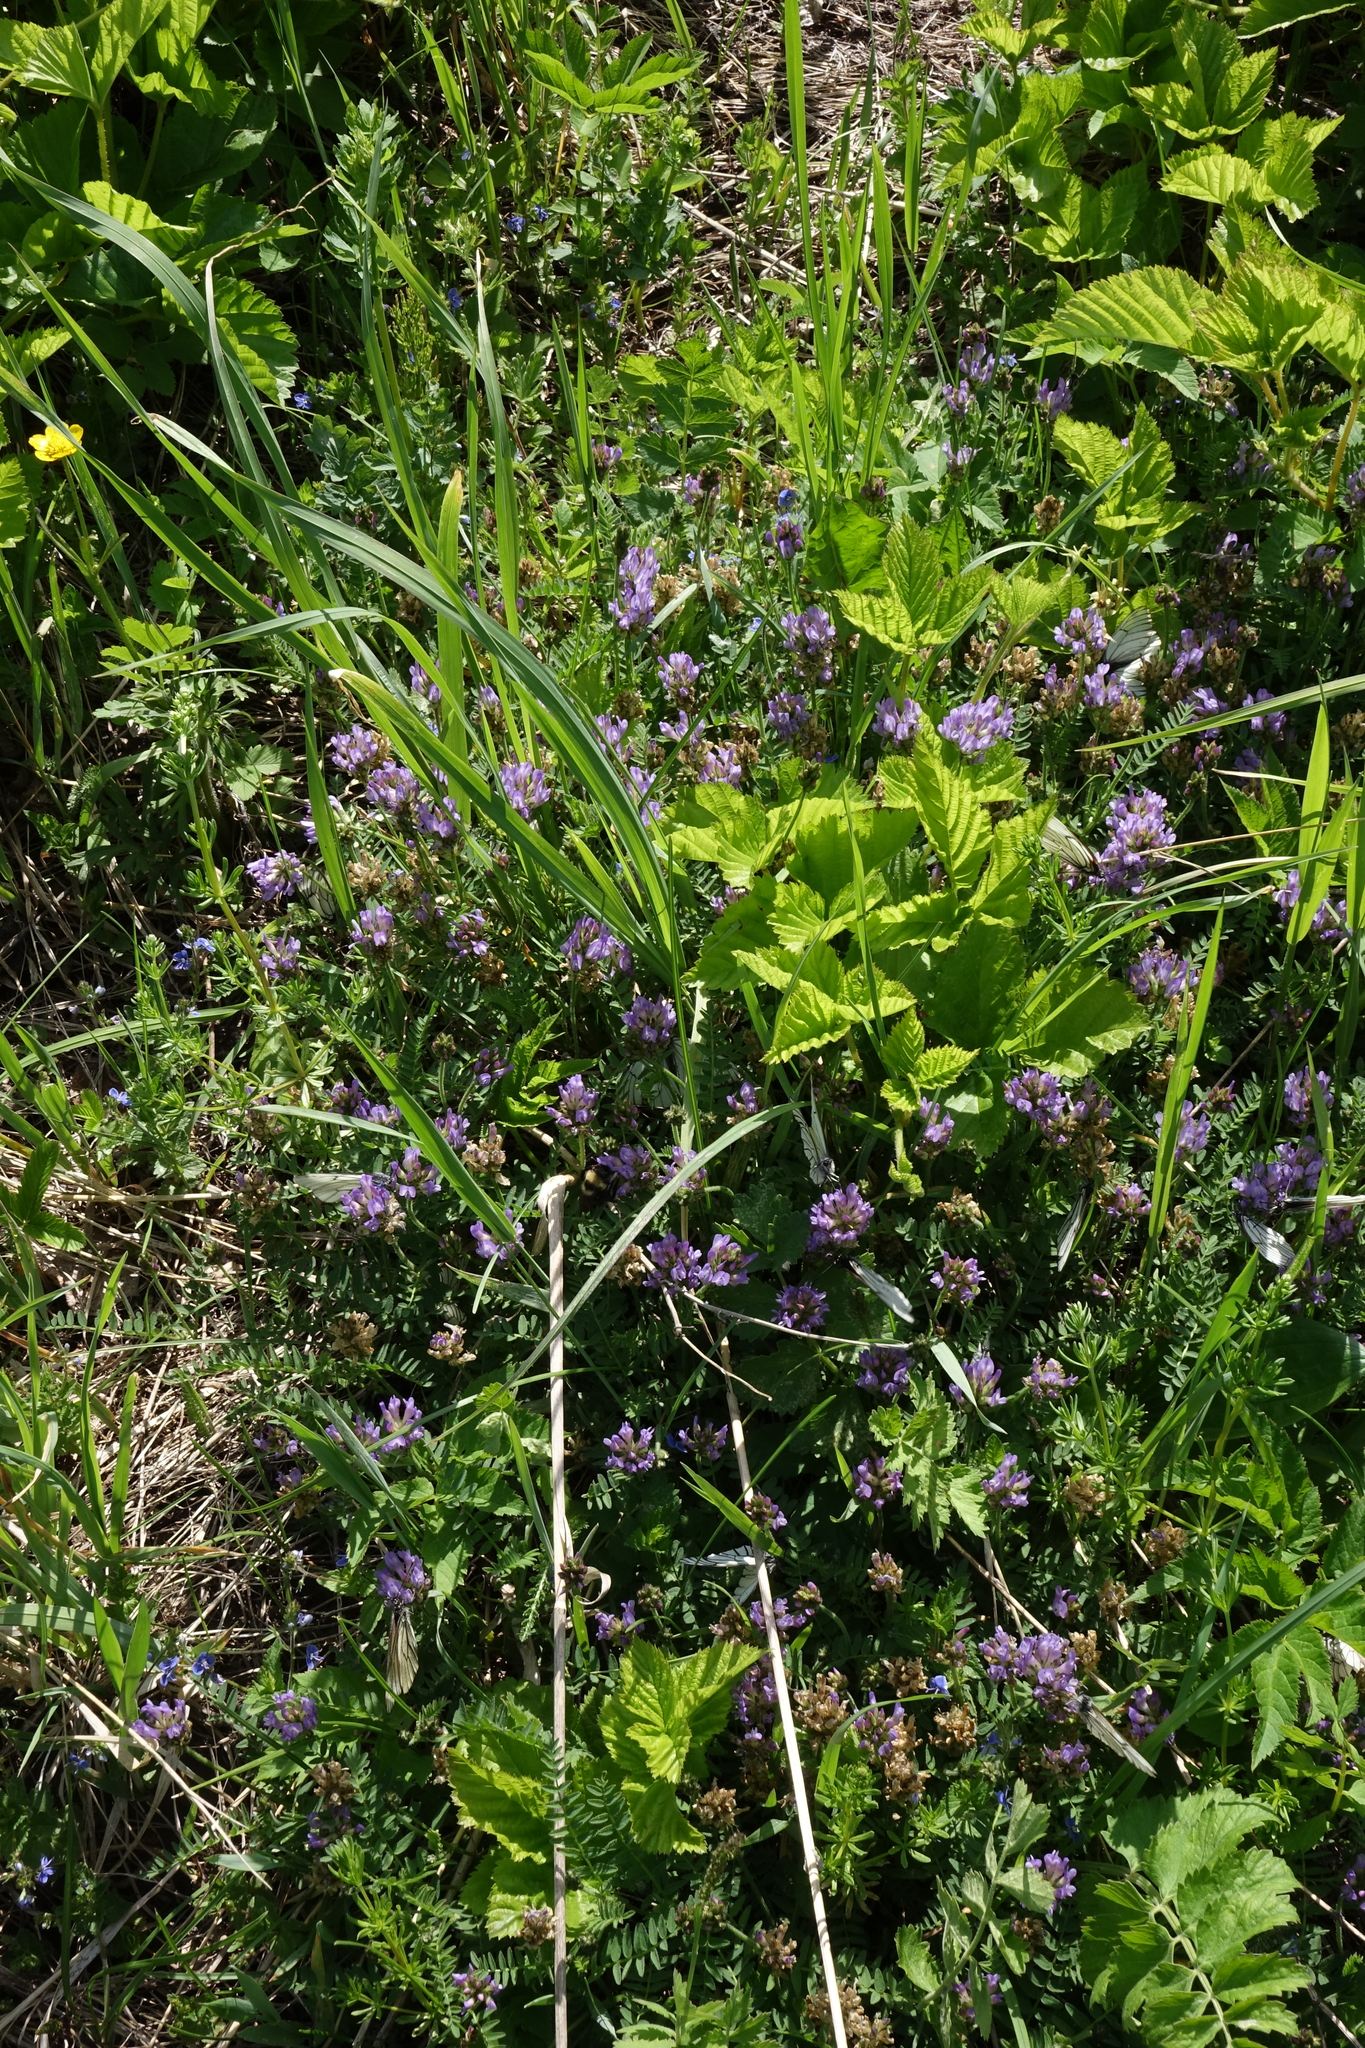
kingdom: Plantae
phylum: Tracheophyta
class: Magnoliopsida
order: Fabales
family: Fabaceae
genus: Astragalus
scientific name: Astragalus danicus
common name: Purple milk-vetch
